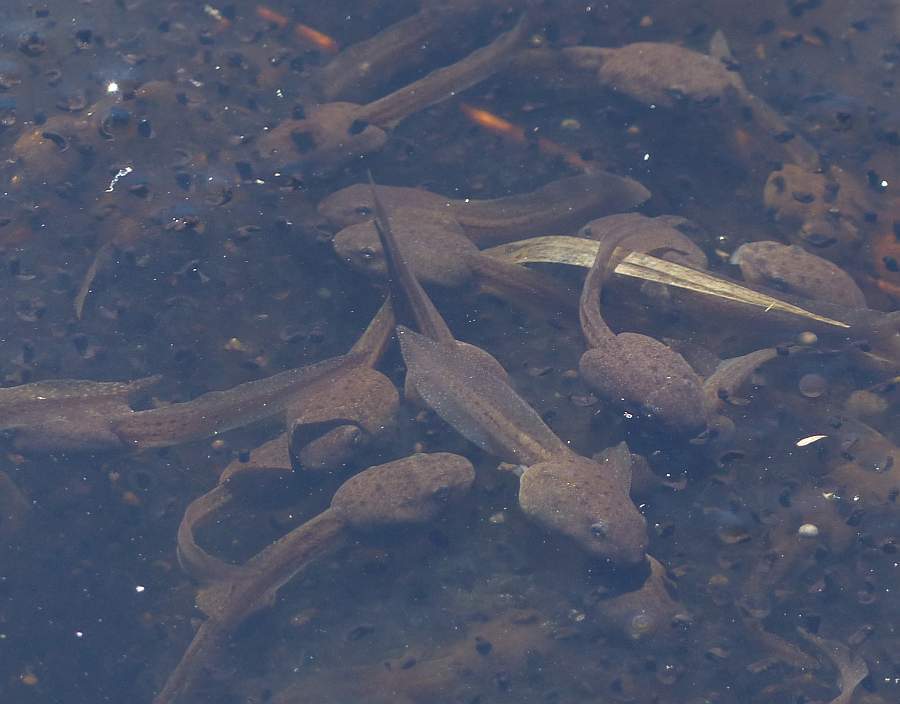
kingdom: Animalia
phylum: Chordata
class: Amphibia
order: Anura
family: Ranidae
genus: Lithobates
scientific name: Lithobates sylvaticus
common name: Wood frog
